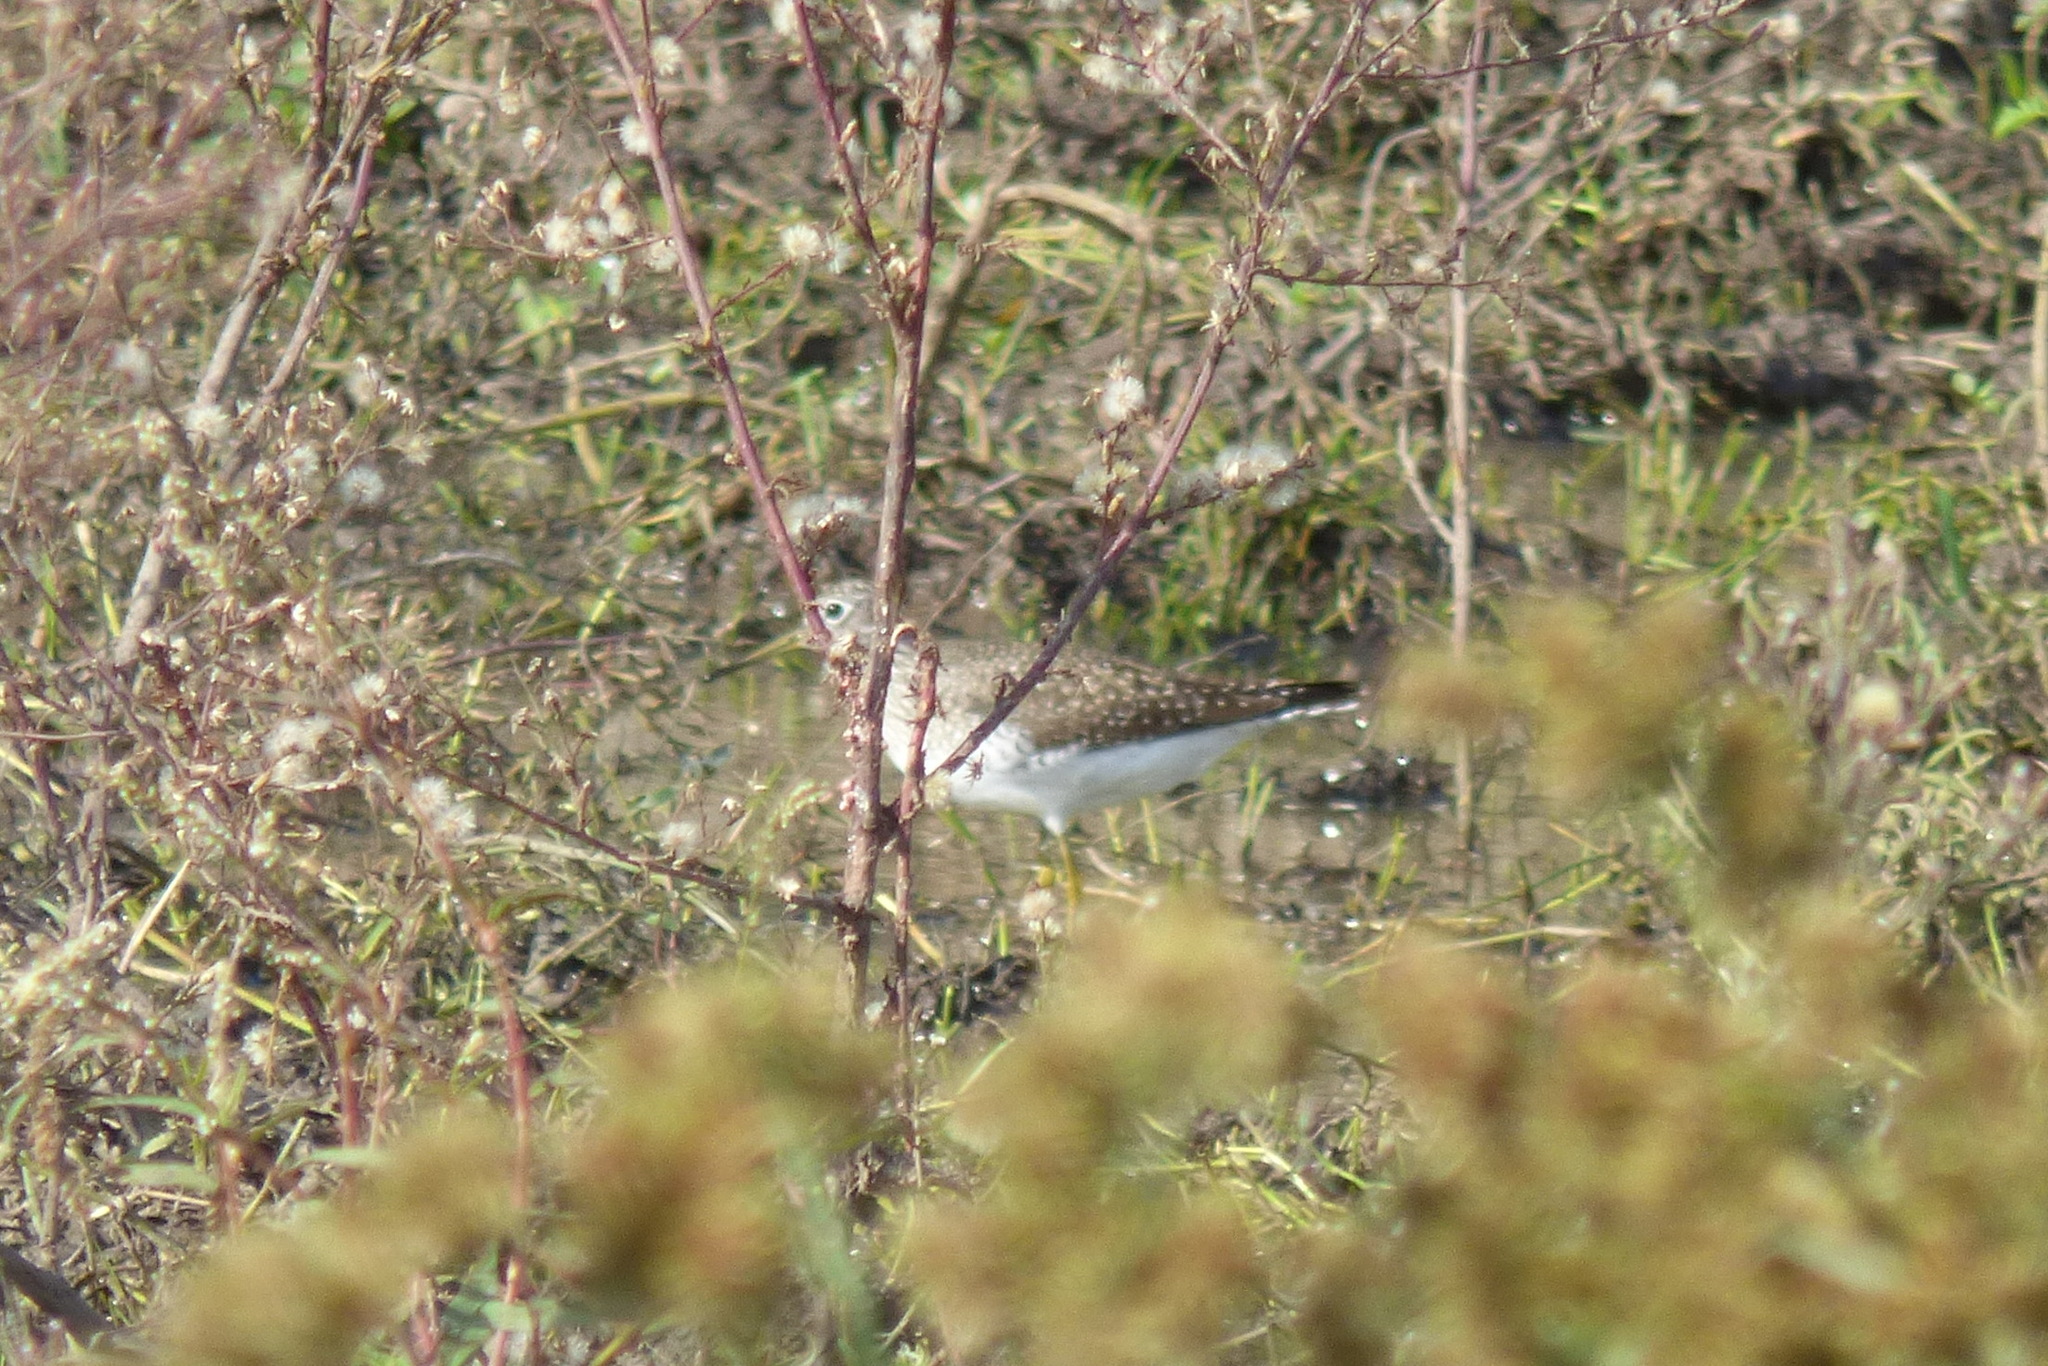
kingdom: Animalia
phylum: Chordata
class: Aves
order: Charadriiformes
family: Scolopacidae
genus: Tringa
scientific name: Tringa solitaria
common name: Solitary sandpiper
